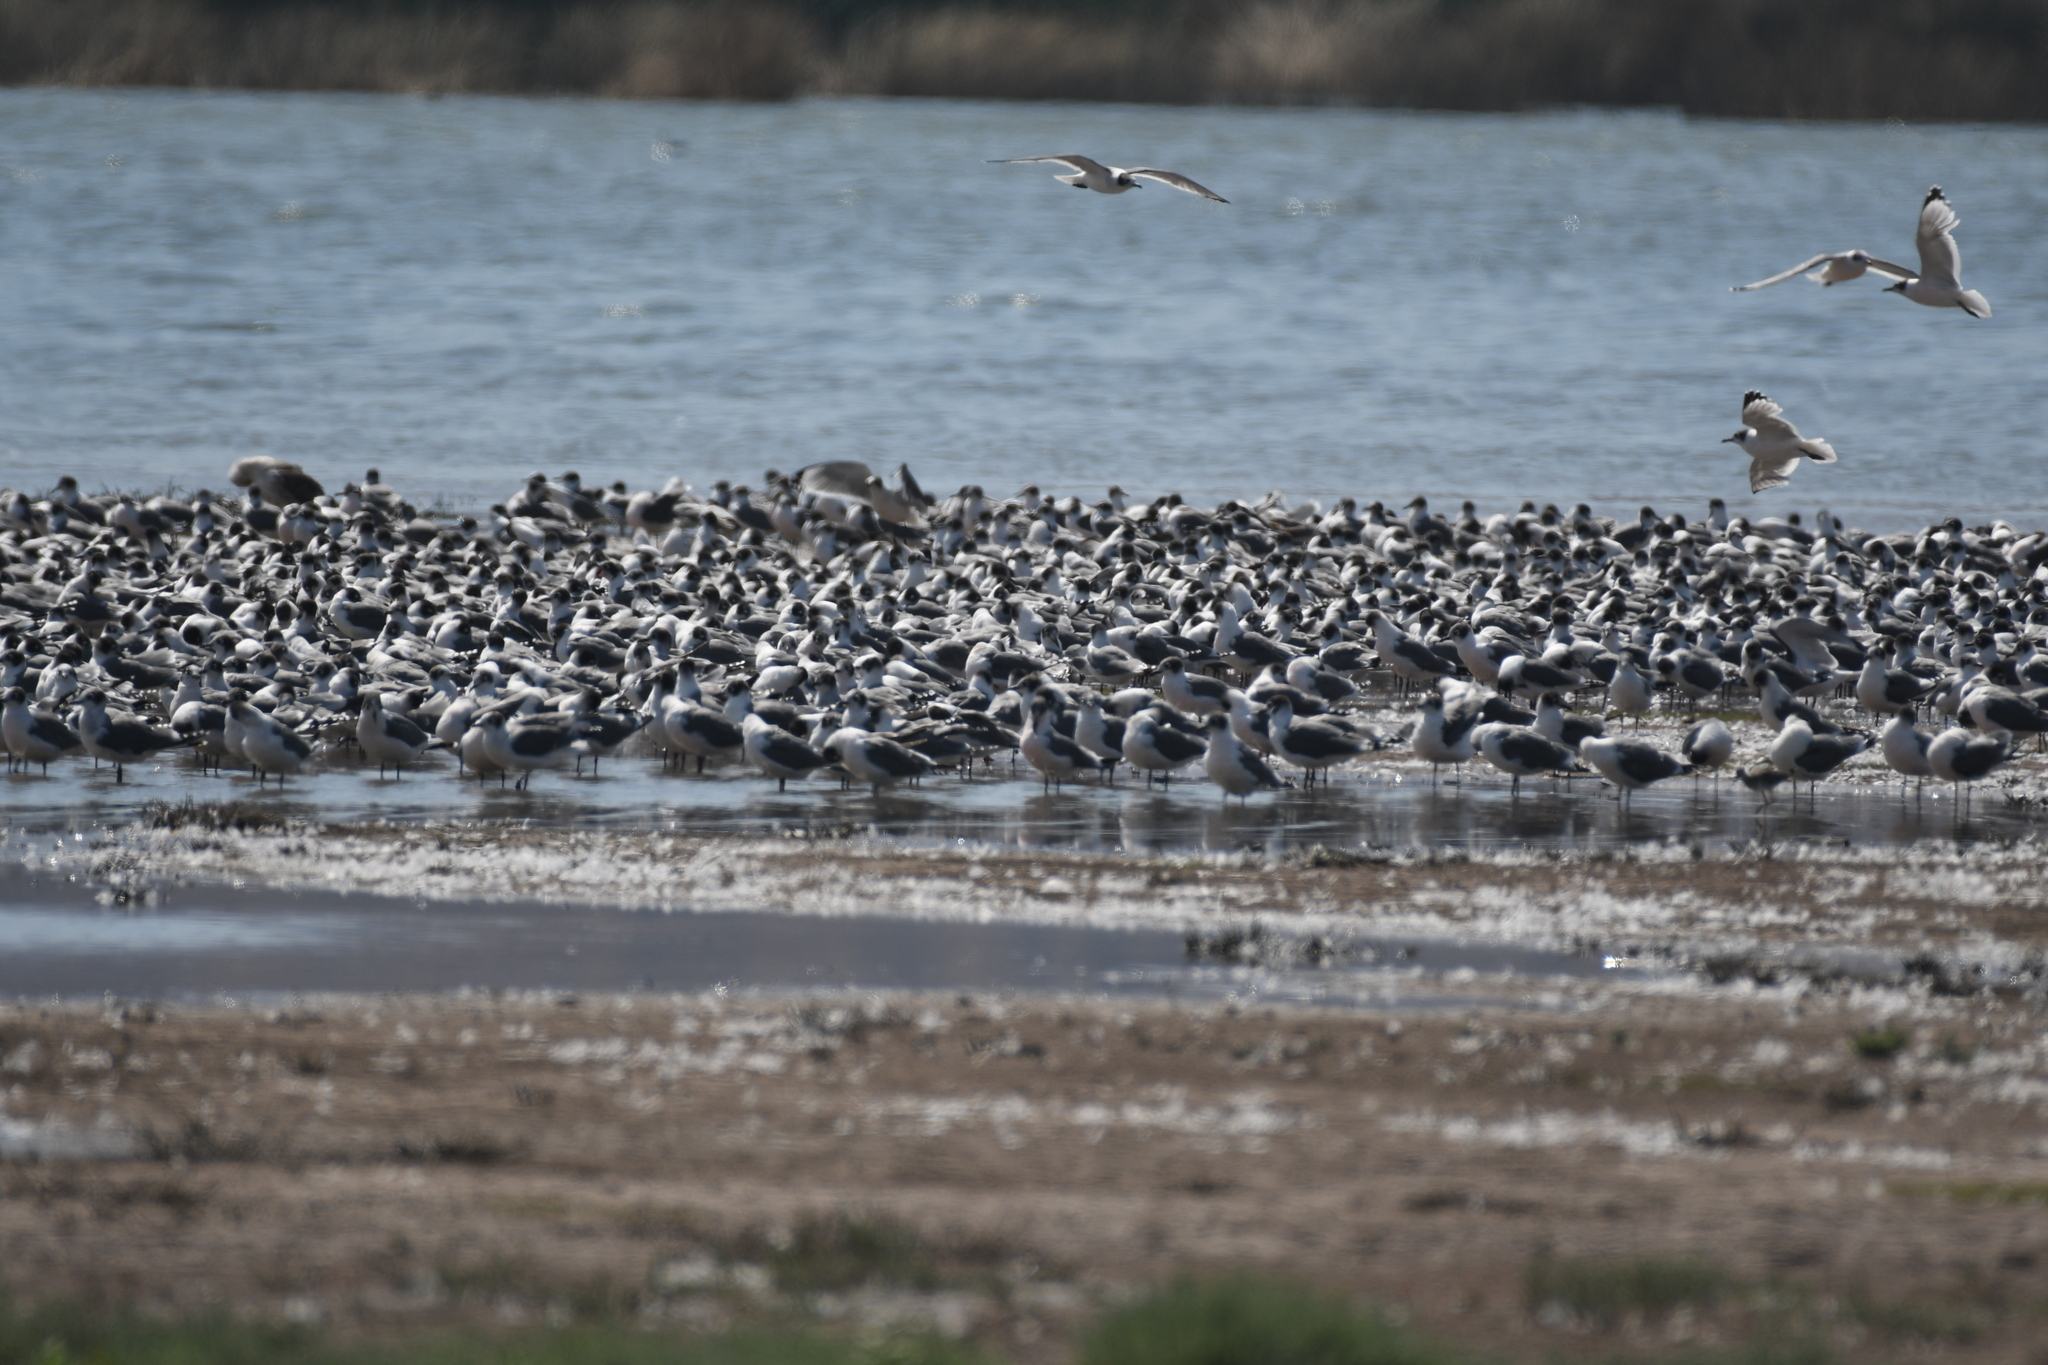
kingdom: Animalia
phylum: Chordata
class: Aves
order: Charadriiformes
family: Laridae
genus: Leucophaeus
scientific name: Leucophaeus pipixcan
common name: Franklin's gull
